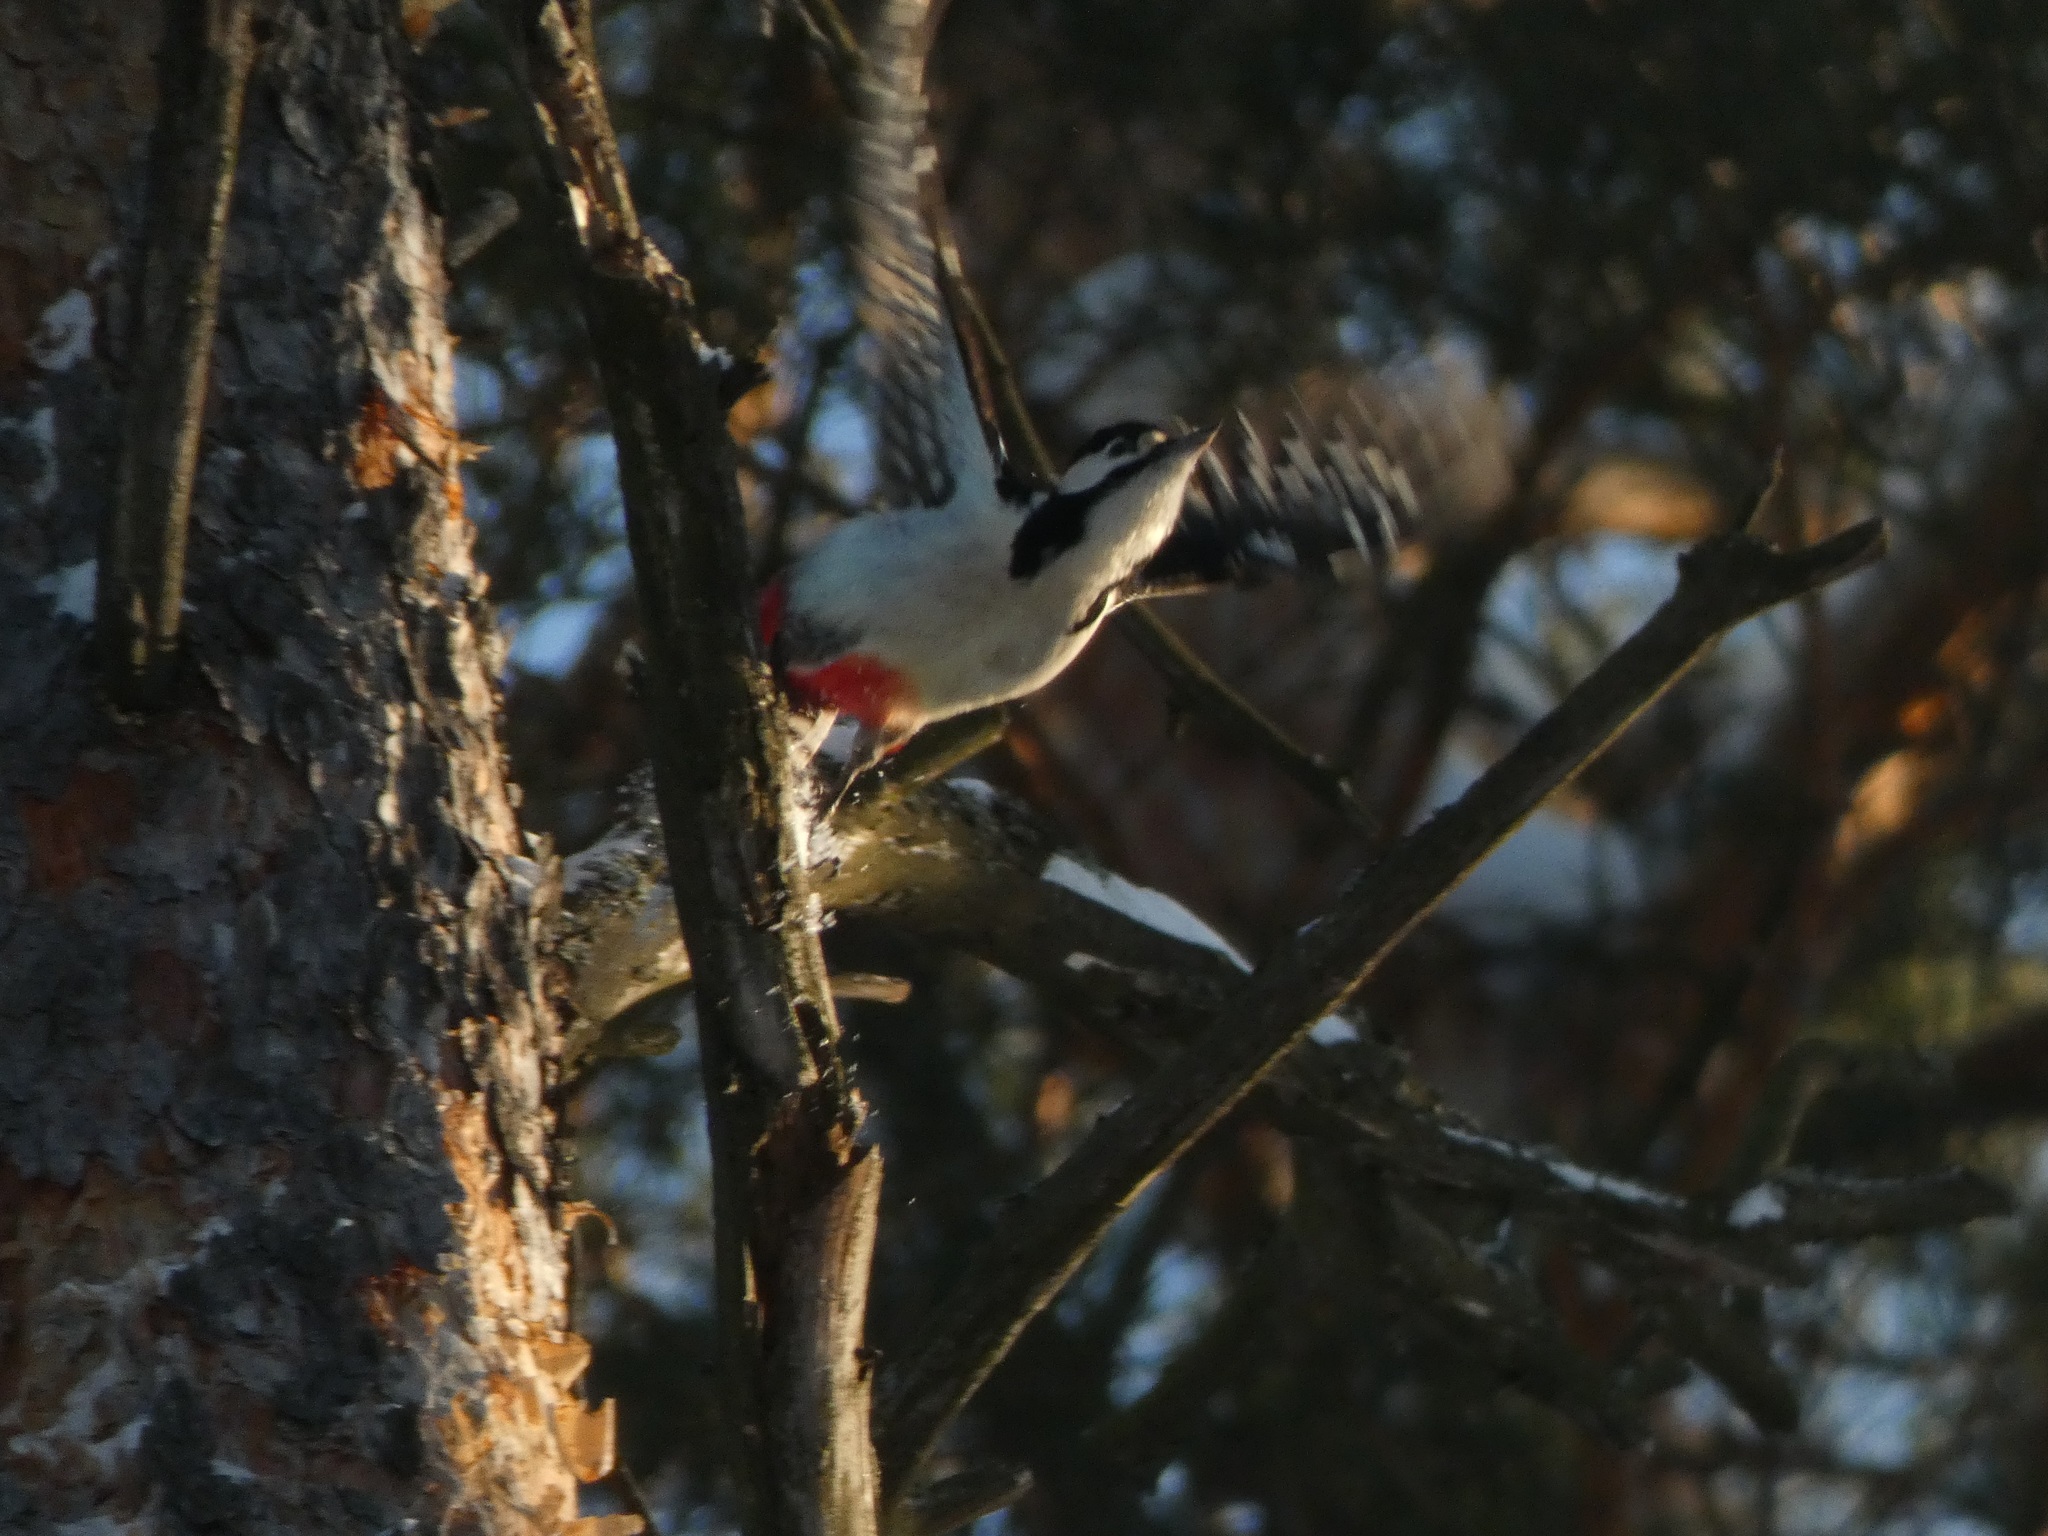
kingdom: Animalia
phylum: Chordata
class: Aves
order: Piciformes
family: Picidae
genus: Dendrocopos
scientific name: Dendrocopos major
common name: Great spotted woodpecker
